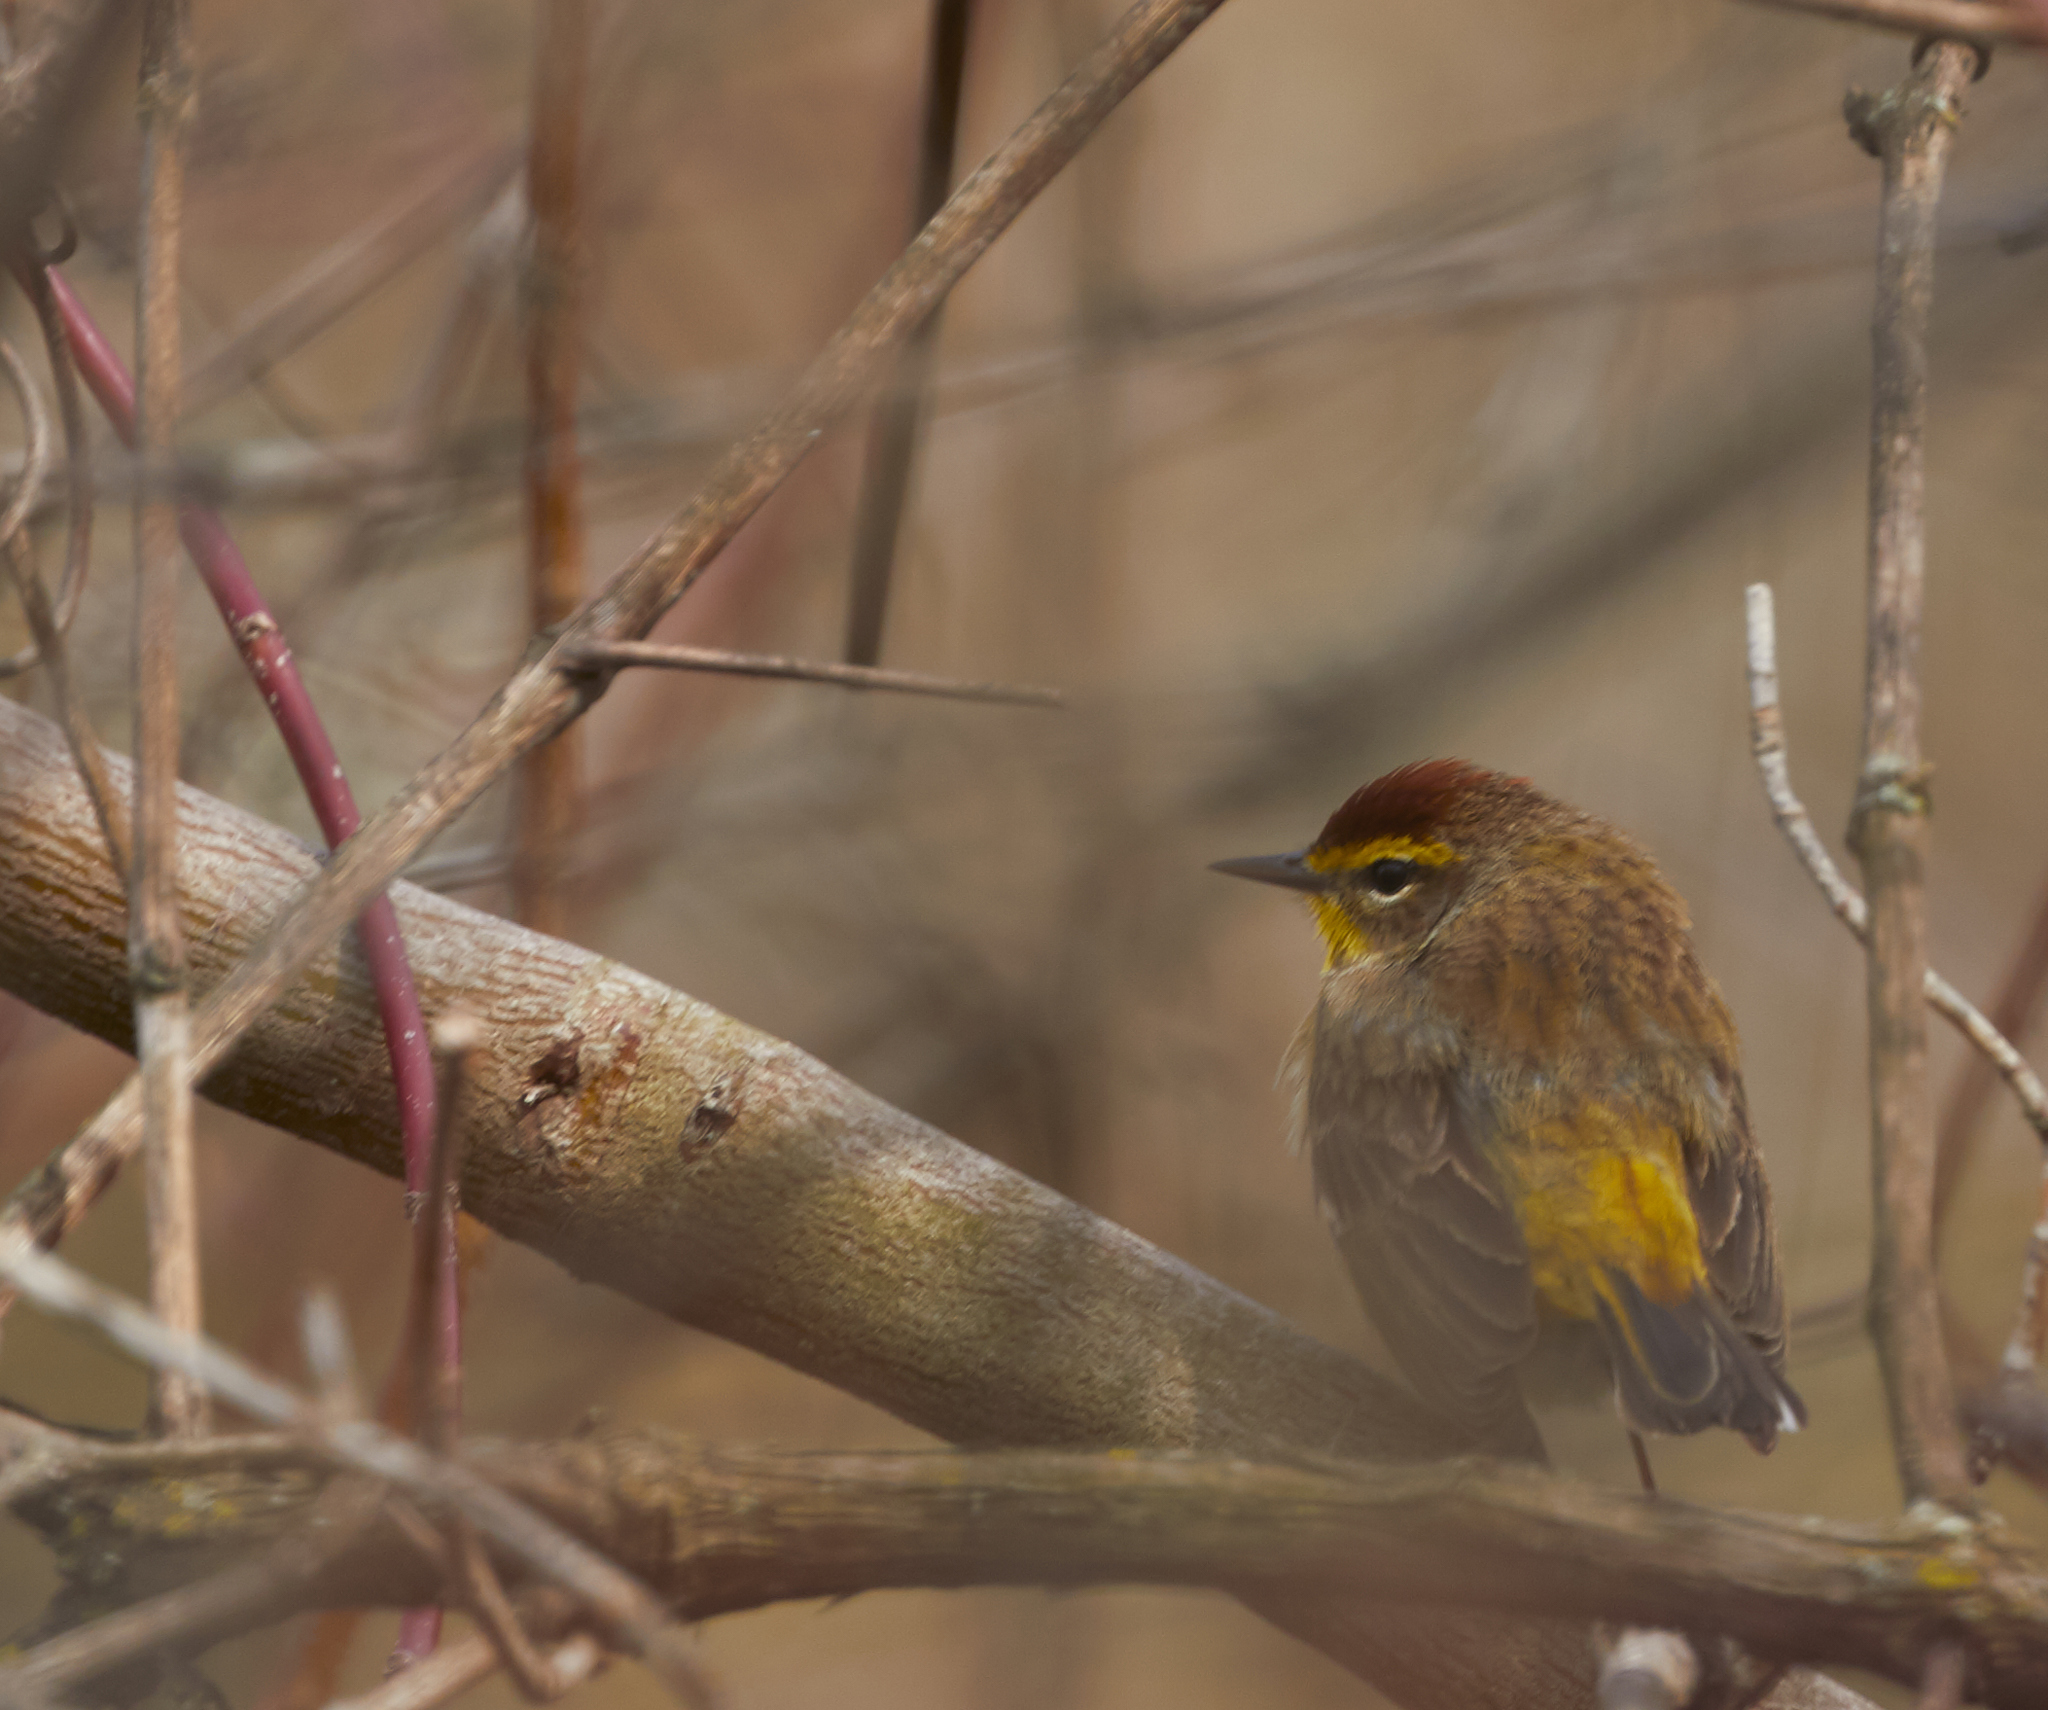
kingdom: Animalia
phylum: Chordata
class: Aves
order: Passeriformes
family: Parulidae
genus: Setophaga
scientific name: Setophaga palmarum
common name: Palm warbler
